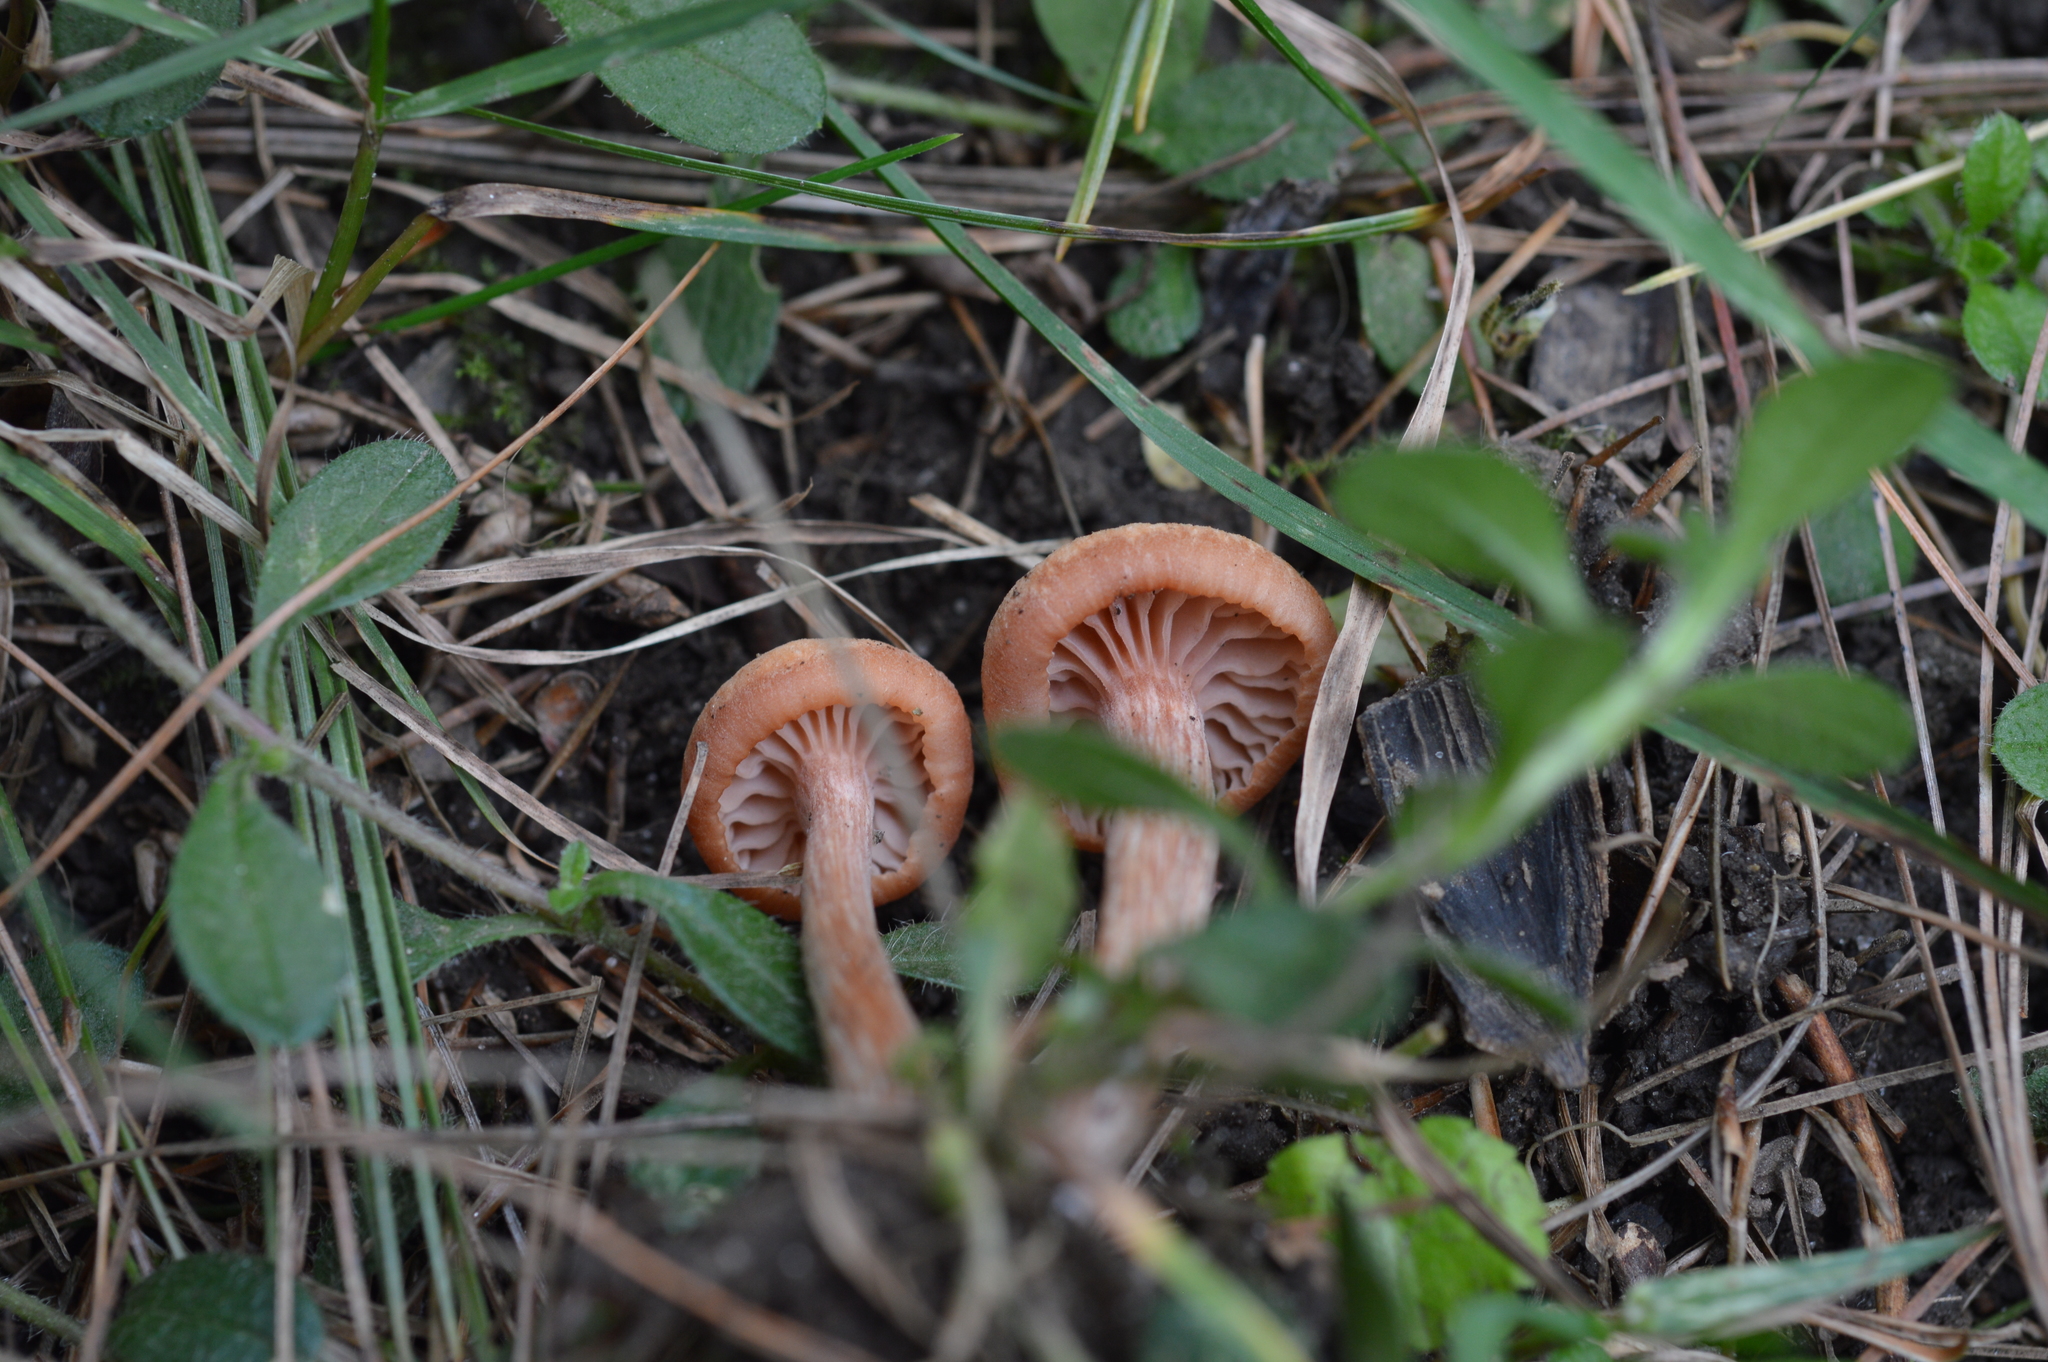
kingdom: Fungi
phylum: Basidiomycota
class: Agaricomycetes
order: Agaricales
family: Hydnangiaceae
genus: Laccaria
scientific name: Laccaria
